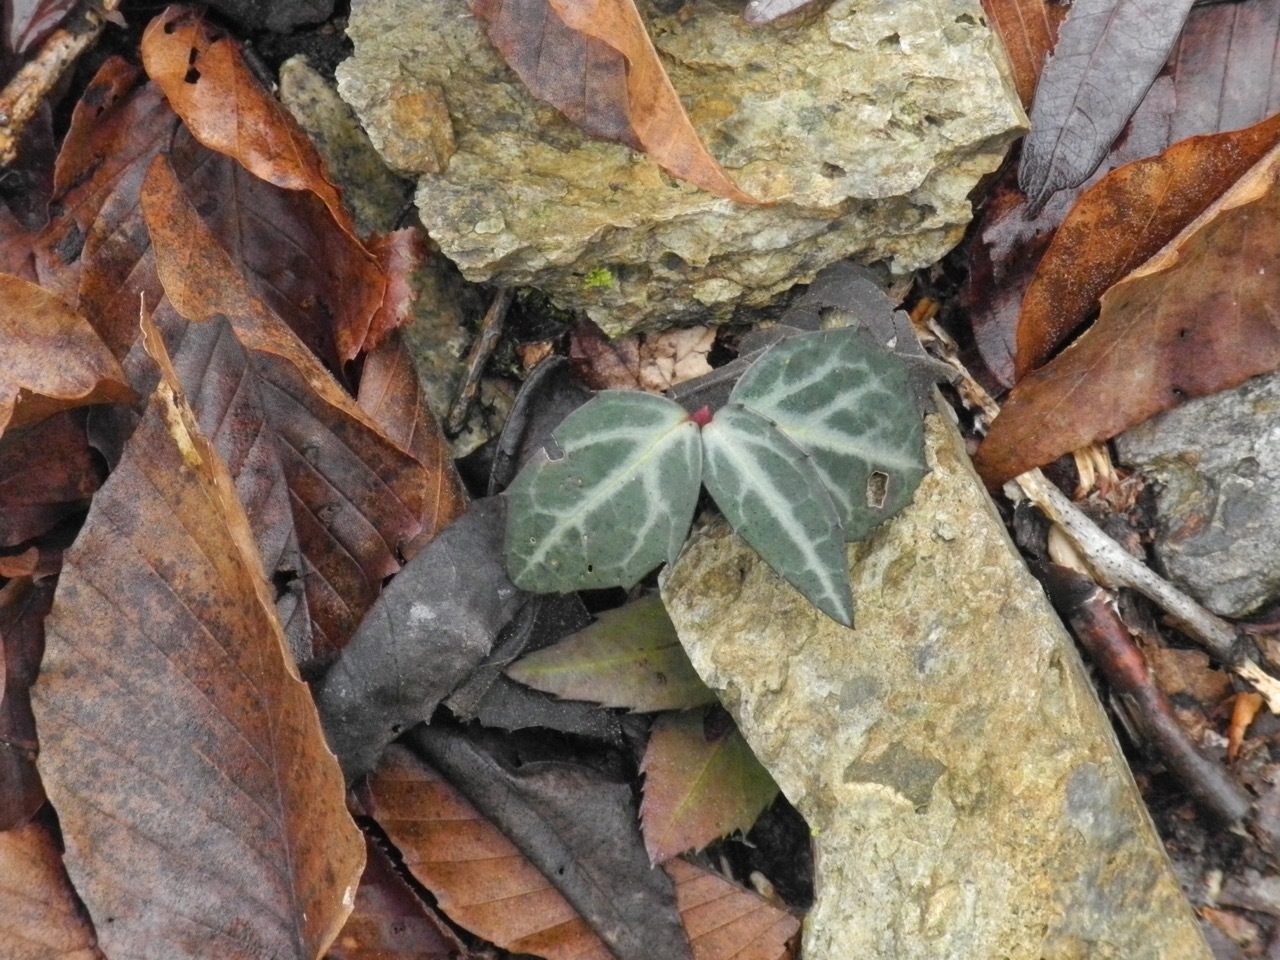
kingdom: Plantae
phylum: Tracheophyta
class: Magnoliopsida
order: Ericales
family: Ericaceae
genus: Chimaphila
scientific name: Chimaphila maculata
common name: Spotted pipsissewa
